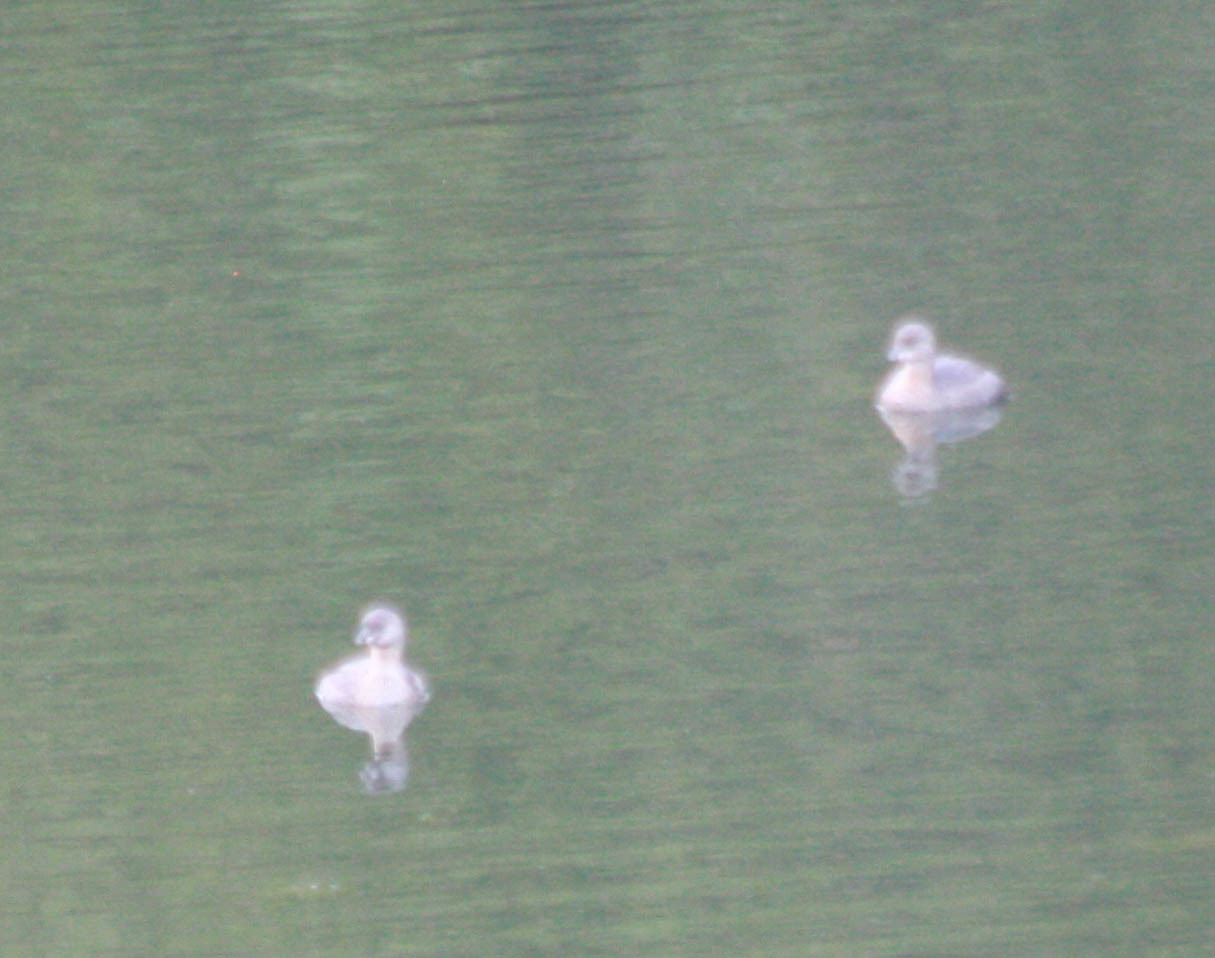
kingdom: Animalia
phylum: Chordata
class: Aves
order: Podicipediformes
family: Podicipedidae
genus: Podilymbus
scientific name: Podilymbus podiceps
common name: Pied-billed grebe
